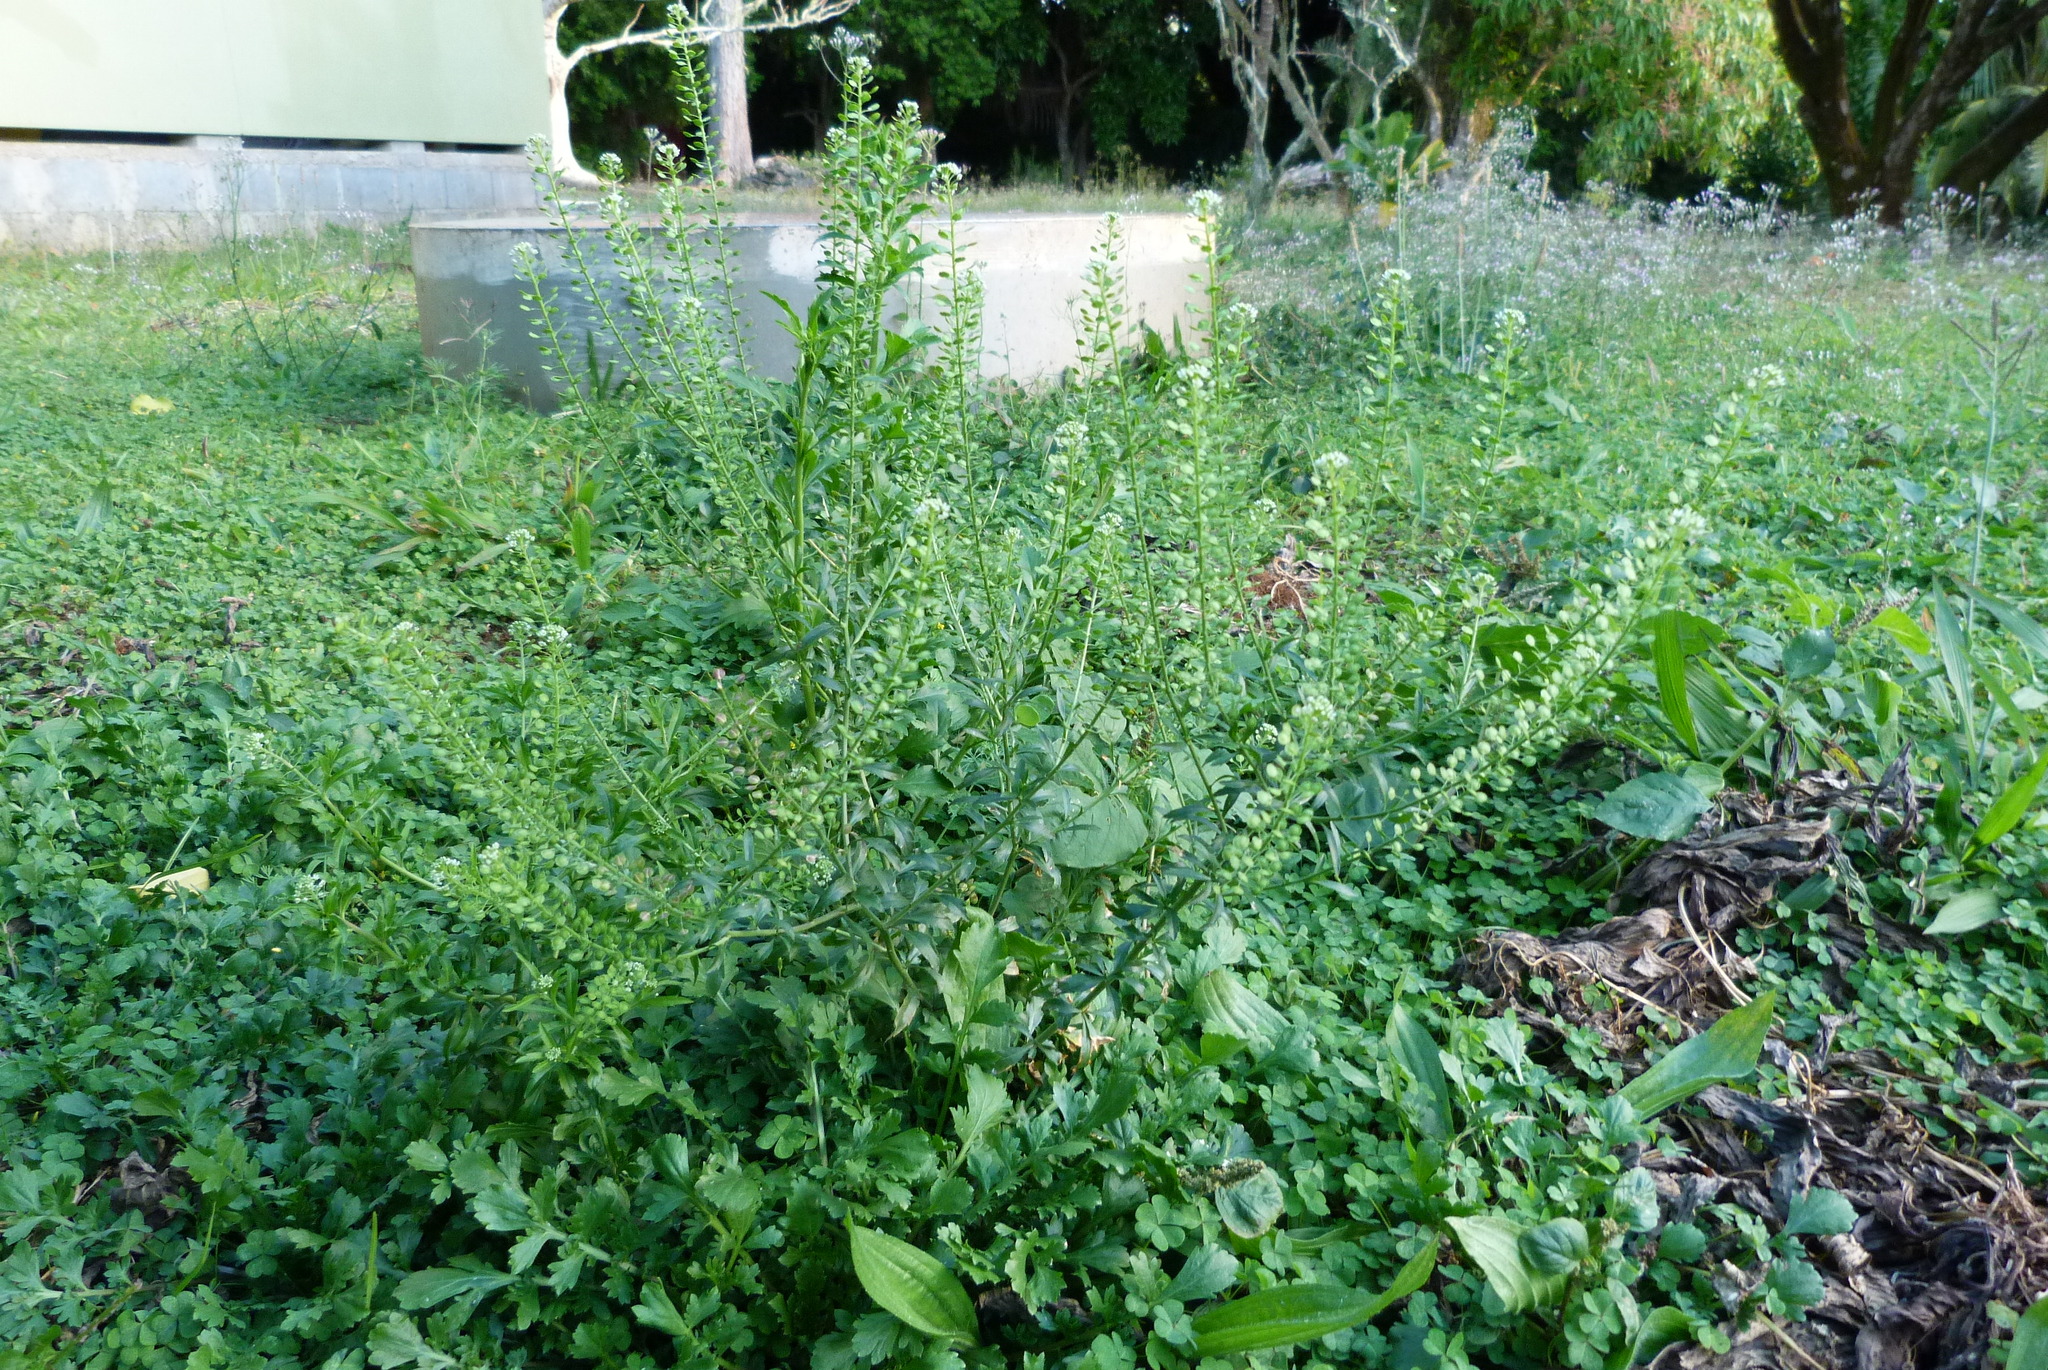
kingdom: Plantae
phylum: Tracheophyta
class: Magnoliopsida
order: Brassicales
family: Brassicaceae
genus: Lepidium
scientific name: Lepidium virginicum
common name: Least pepperwort
